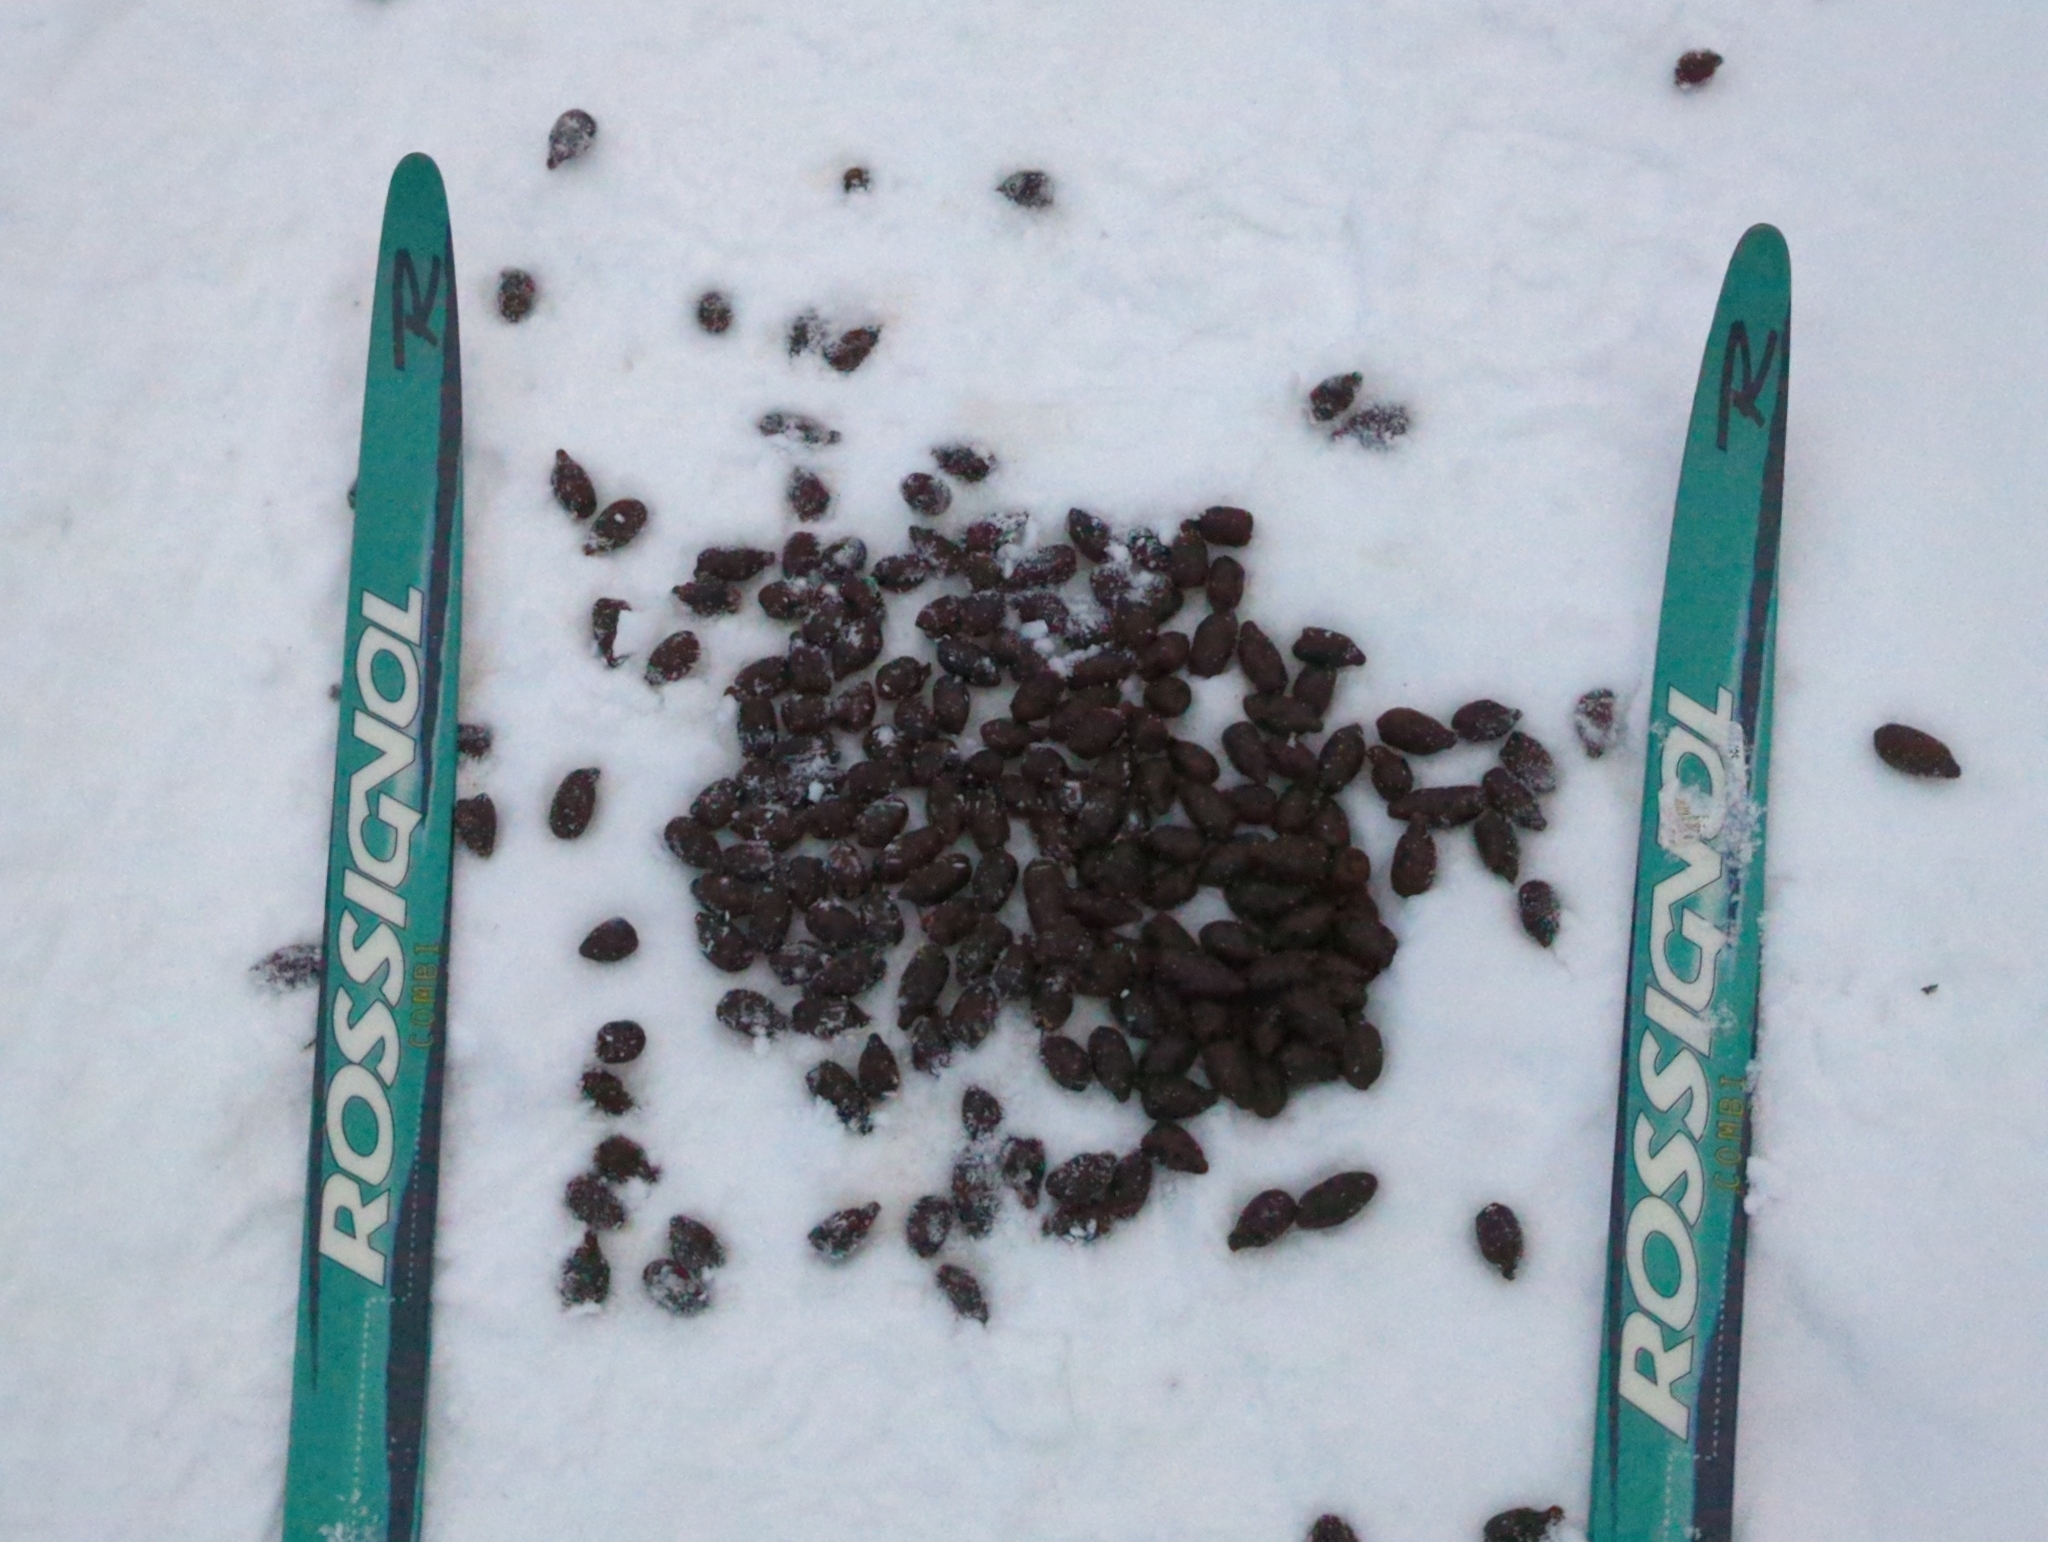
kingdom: Animalia
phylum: Chordata
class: Mammalia
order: Artiodactyla
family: Cervidae
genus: Alces
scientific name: Alces alces
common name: Moose
